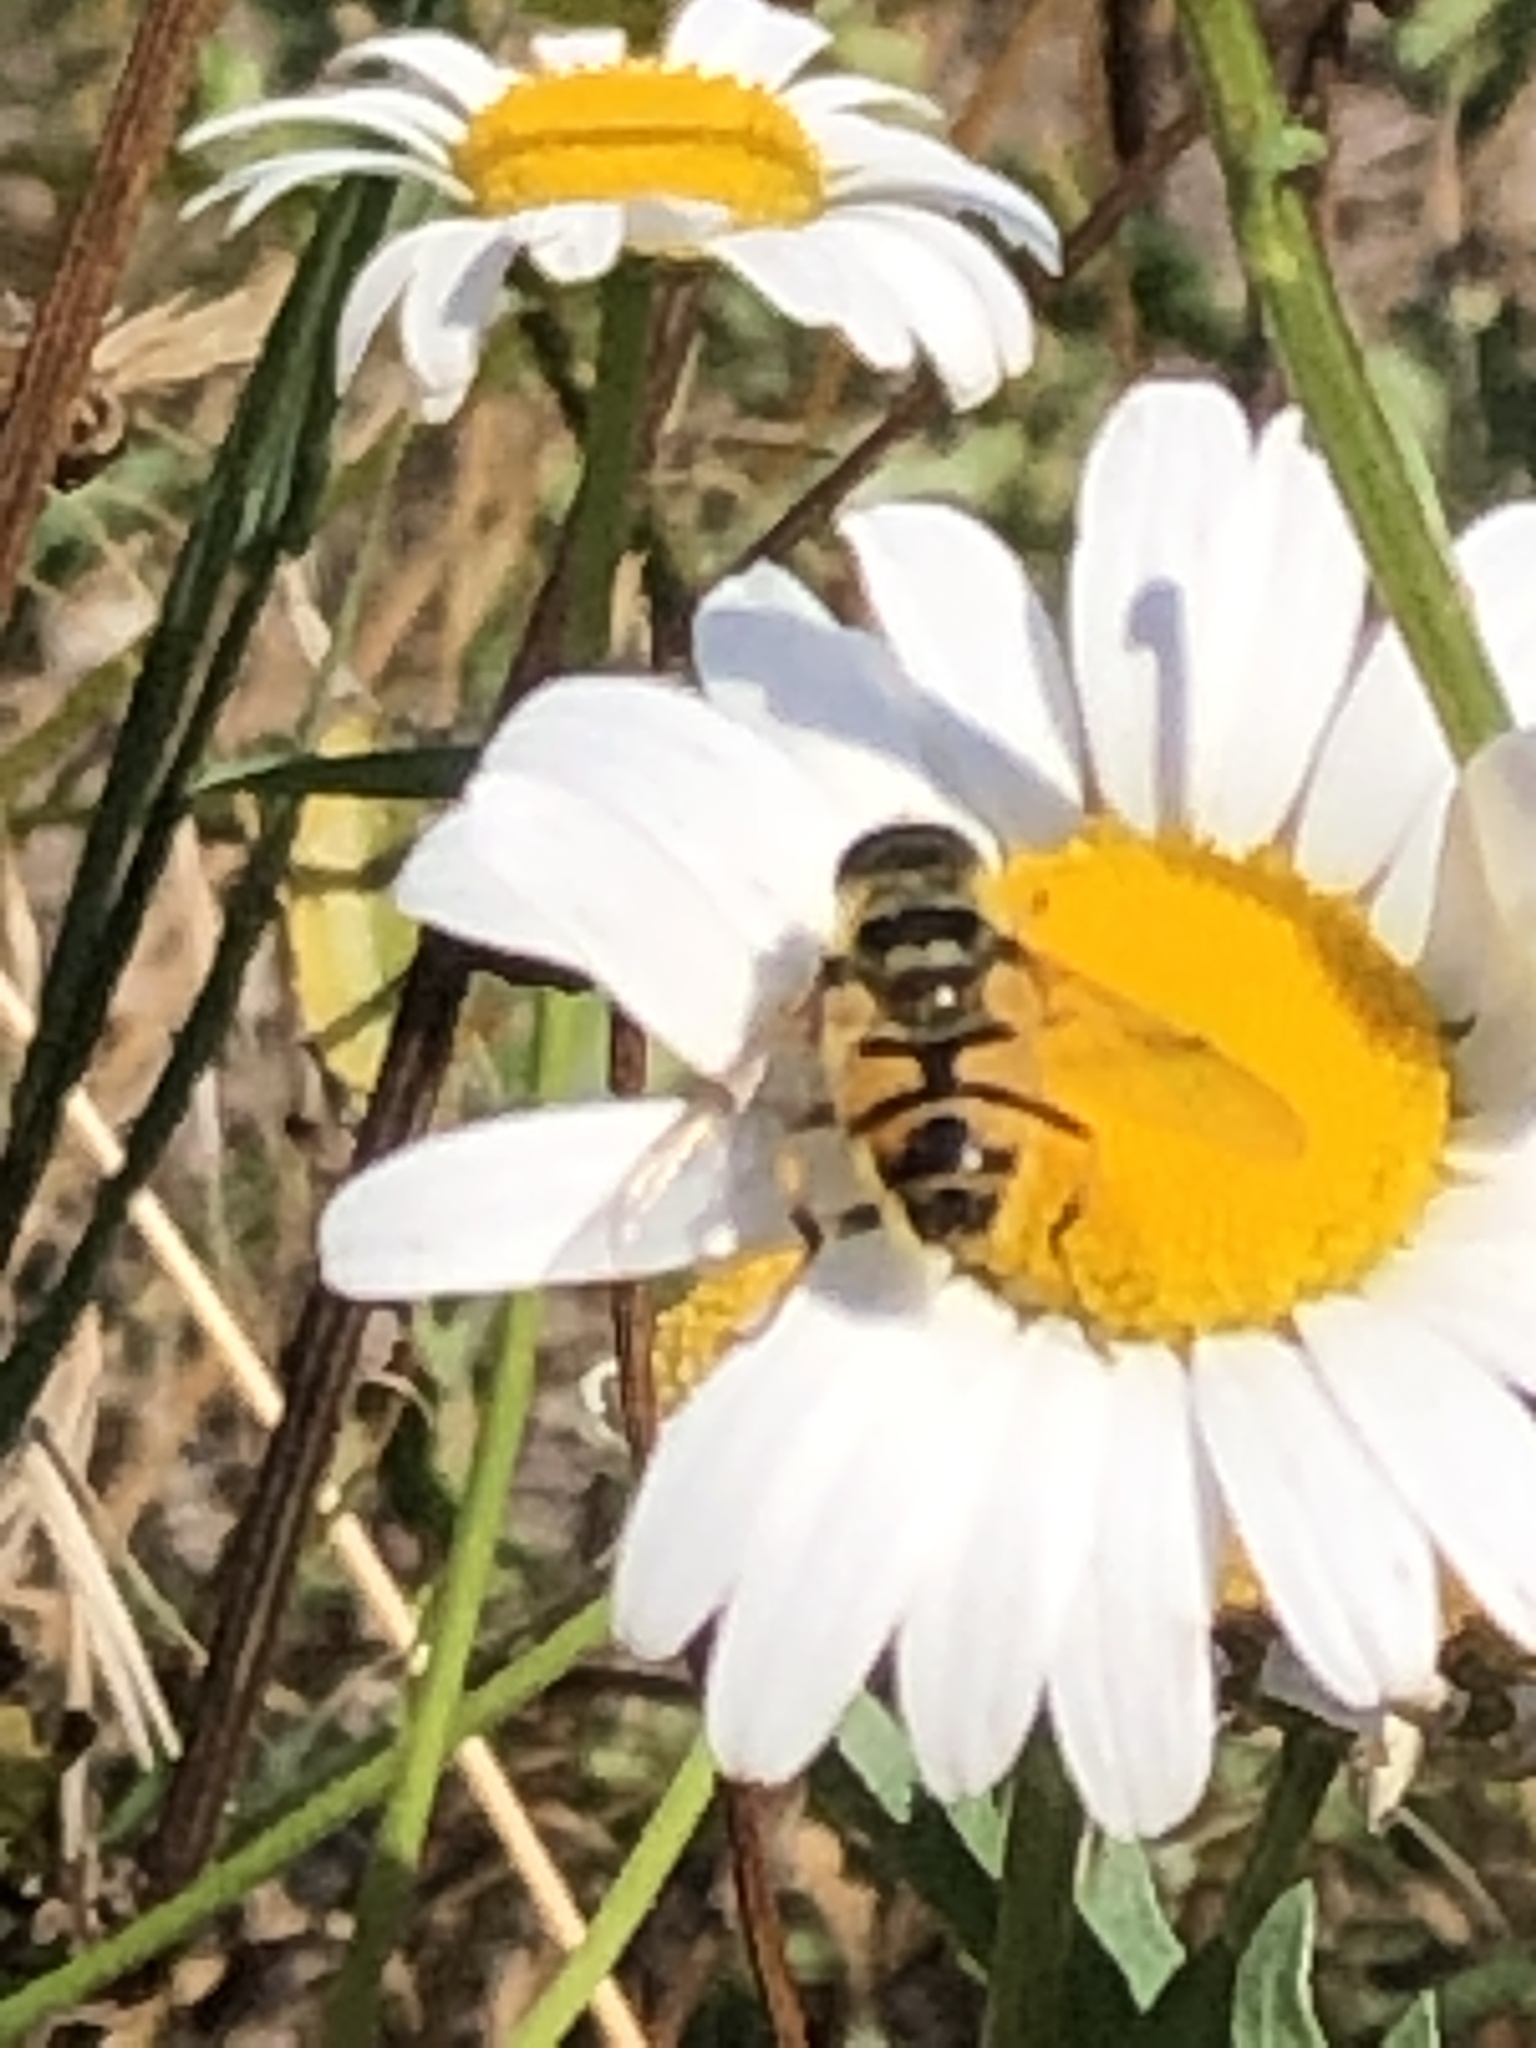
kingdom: Animalia
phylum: Arthropoda
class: Insecta
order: Diptera
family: Syrphidae
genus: Myathropa
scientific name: Myathropa florea
